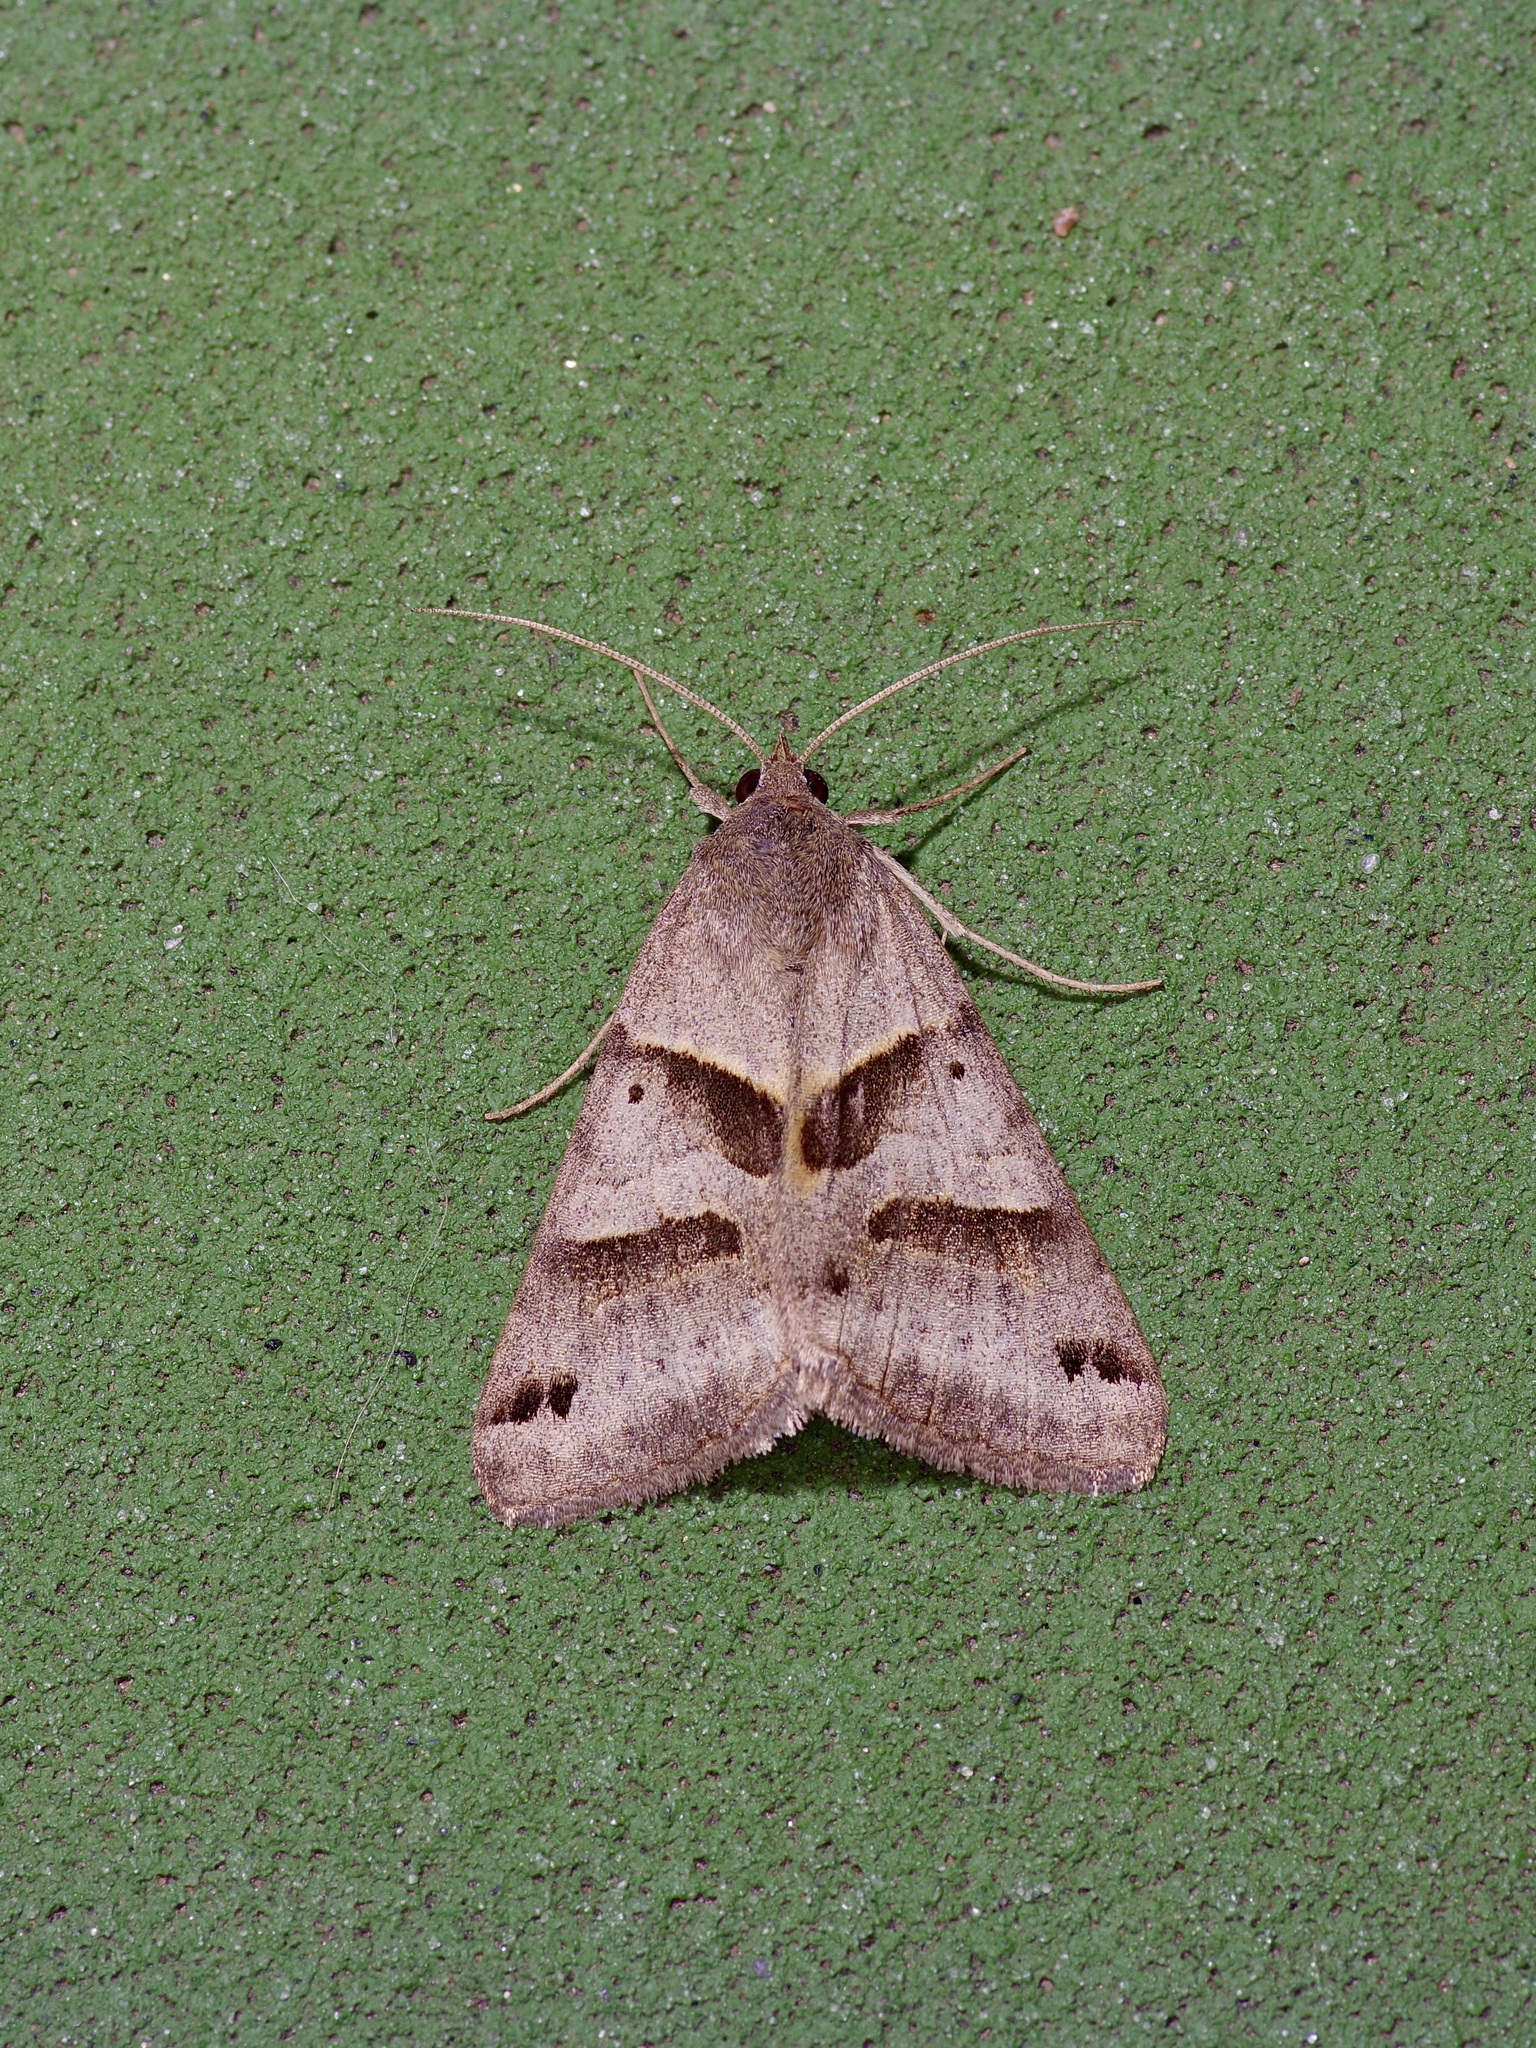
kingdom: Animalia
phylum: Arthropoda
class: Insecta
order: Lepidoptera
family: Erebidae
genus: Caenurgina
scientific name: Caenurgina erechtea
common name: Forage looper moth
